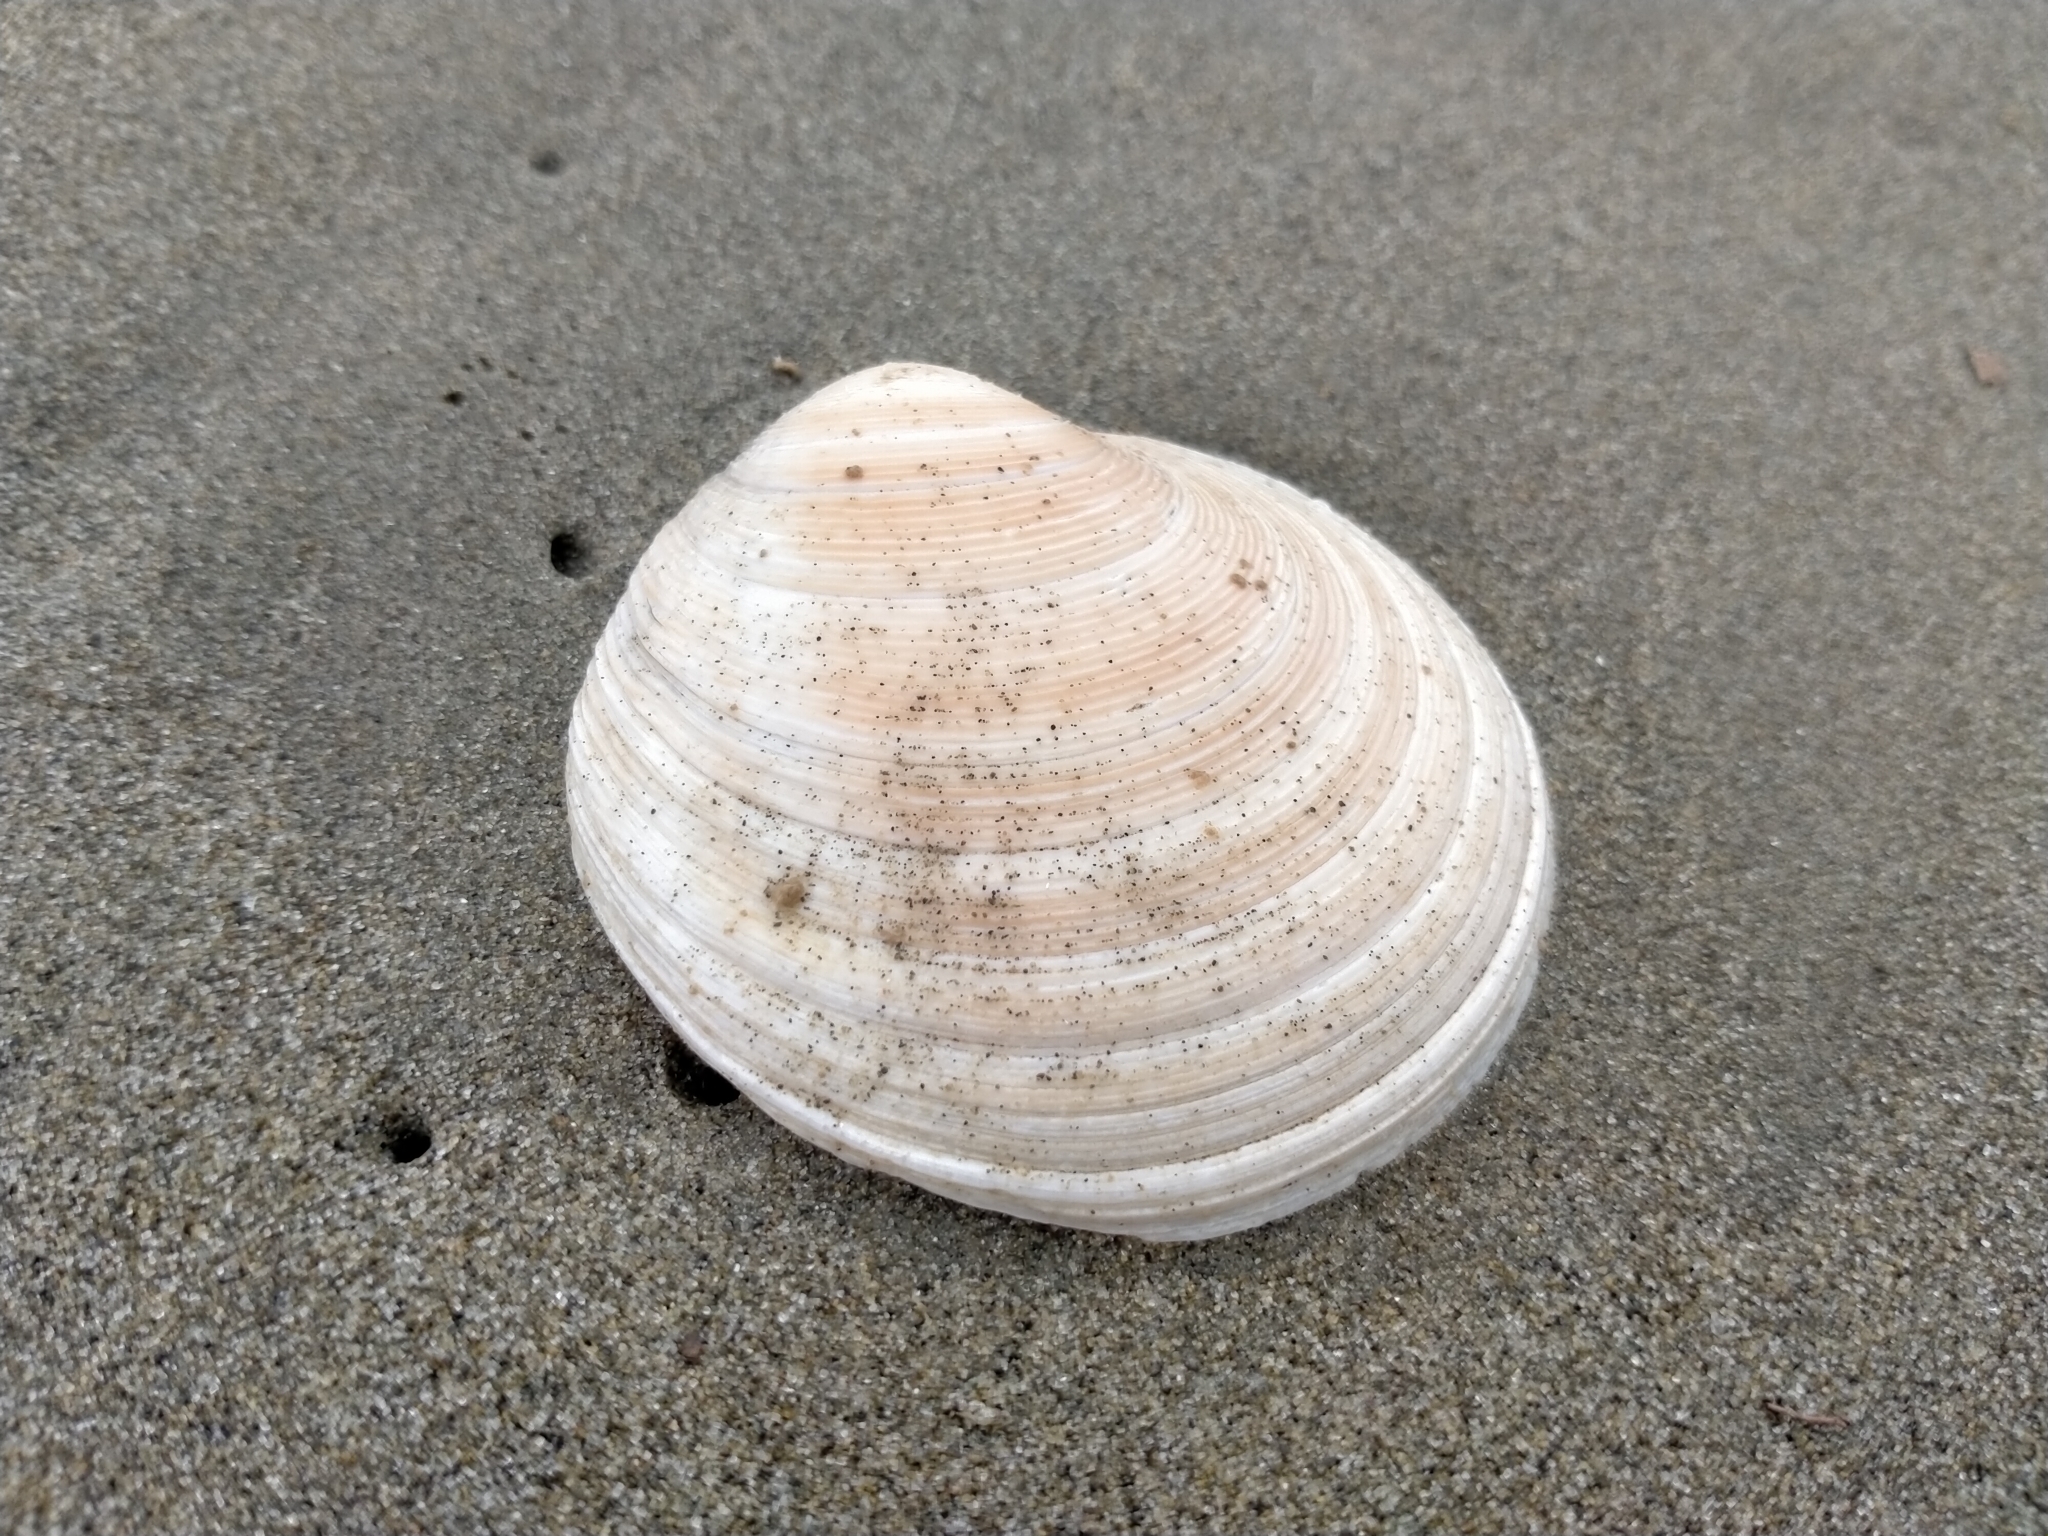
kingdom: Animalia
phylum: Mollusca
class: Bivalvia
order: Venerida
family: Veneridae
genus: Dosinia
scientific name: Dosinia anus
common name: Old-woman dosinia
